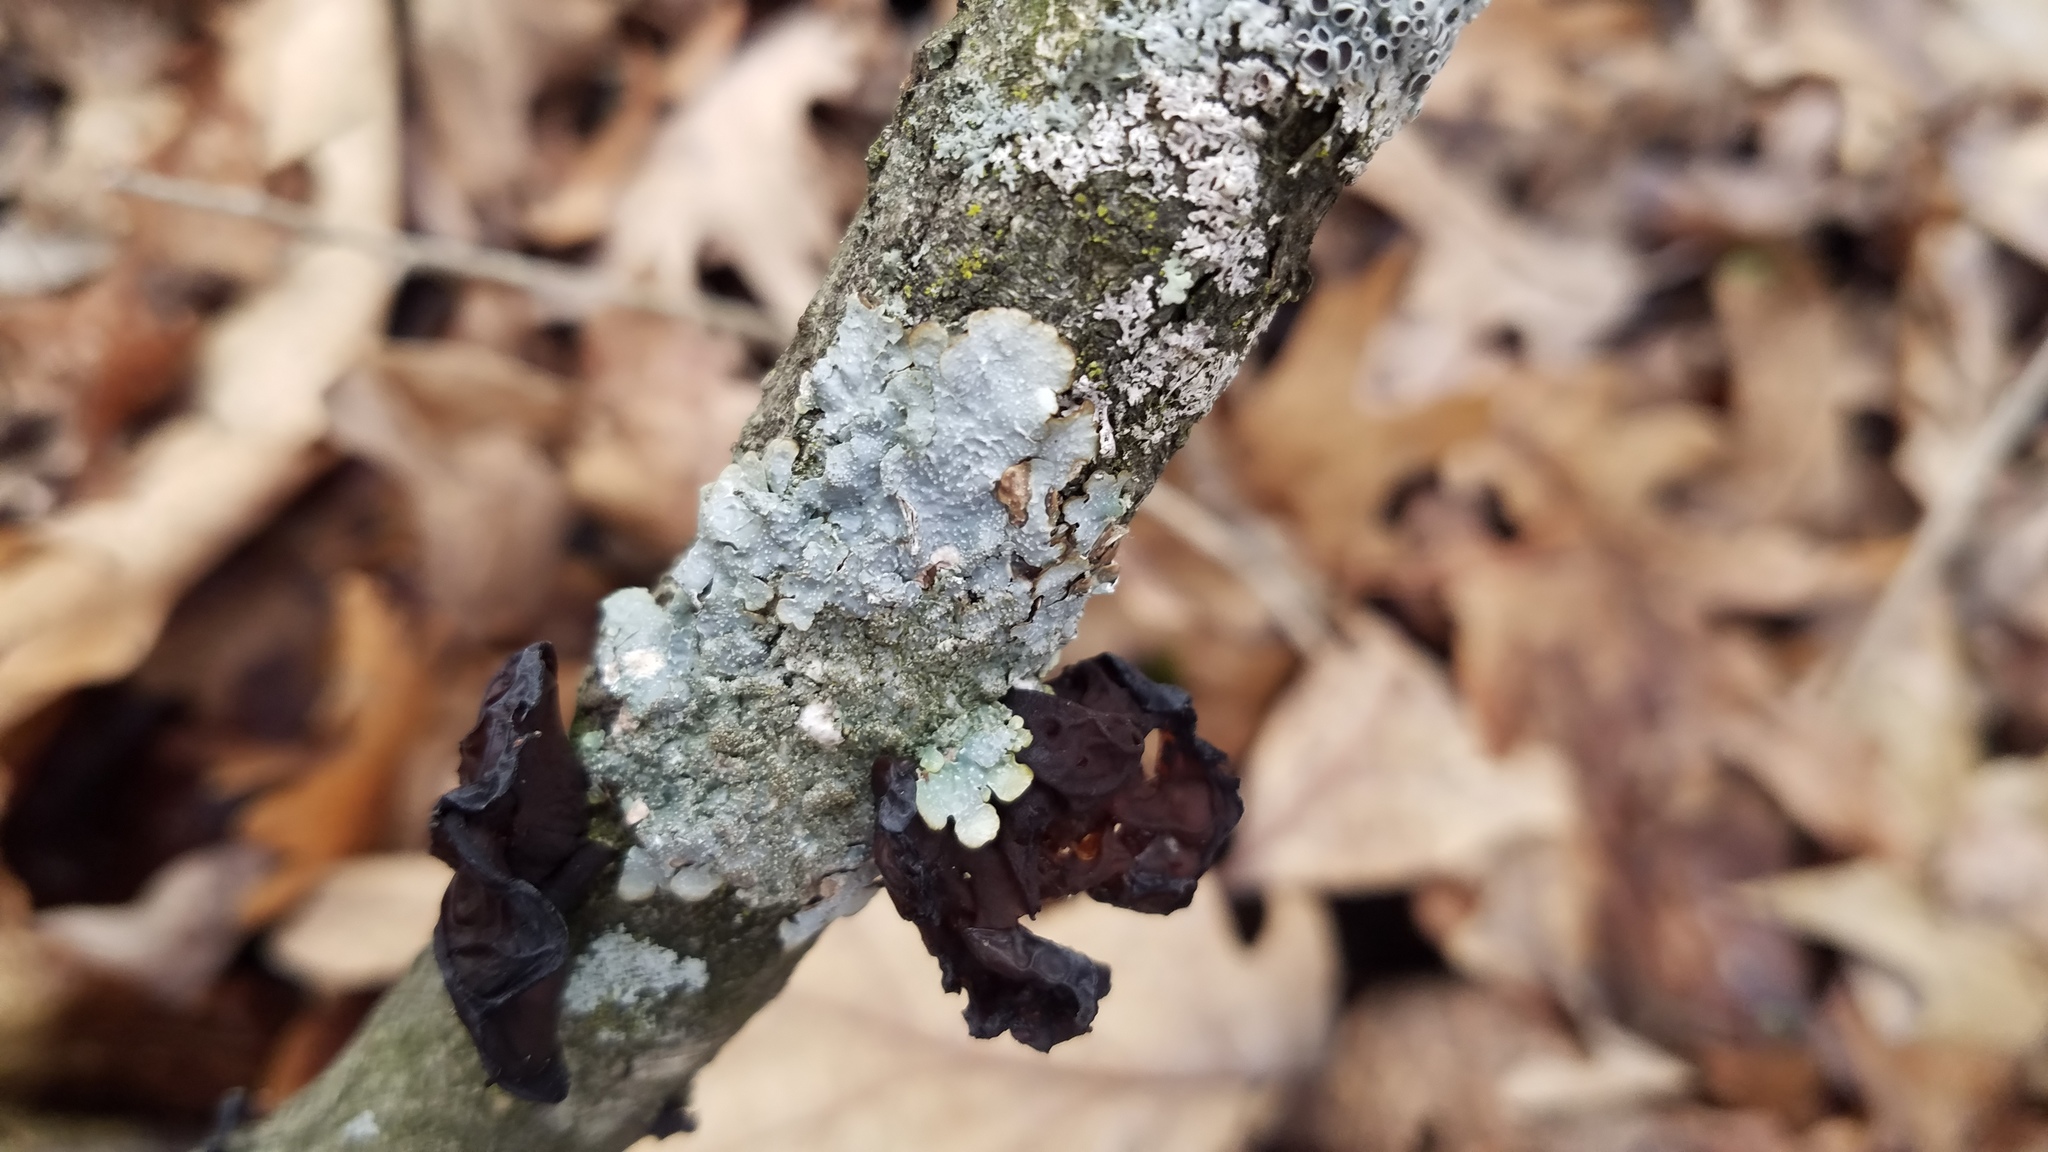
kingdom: Fungi
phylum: Ascomycota
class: Lecanoromycetes
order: Lecanorales
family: Parmeliaceae
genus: Punctelia
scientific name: Punctelia rudecta
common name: Rough speckled shield lichen
